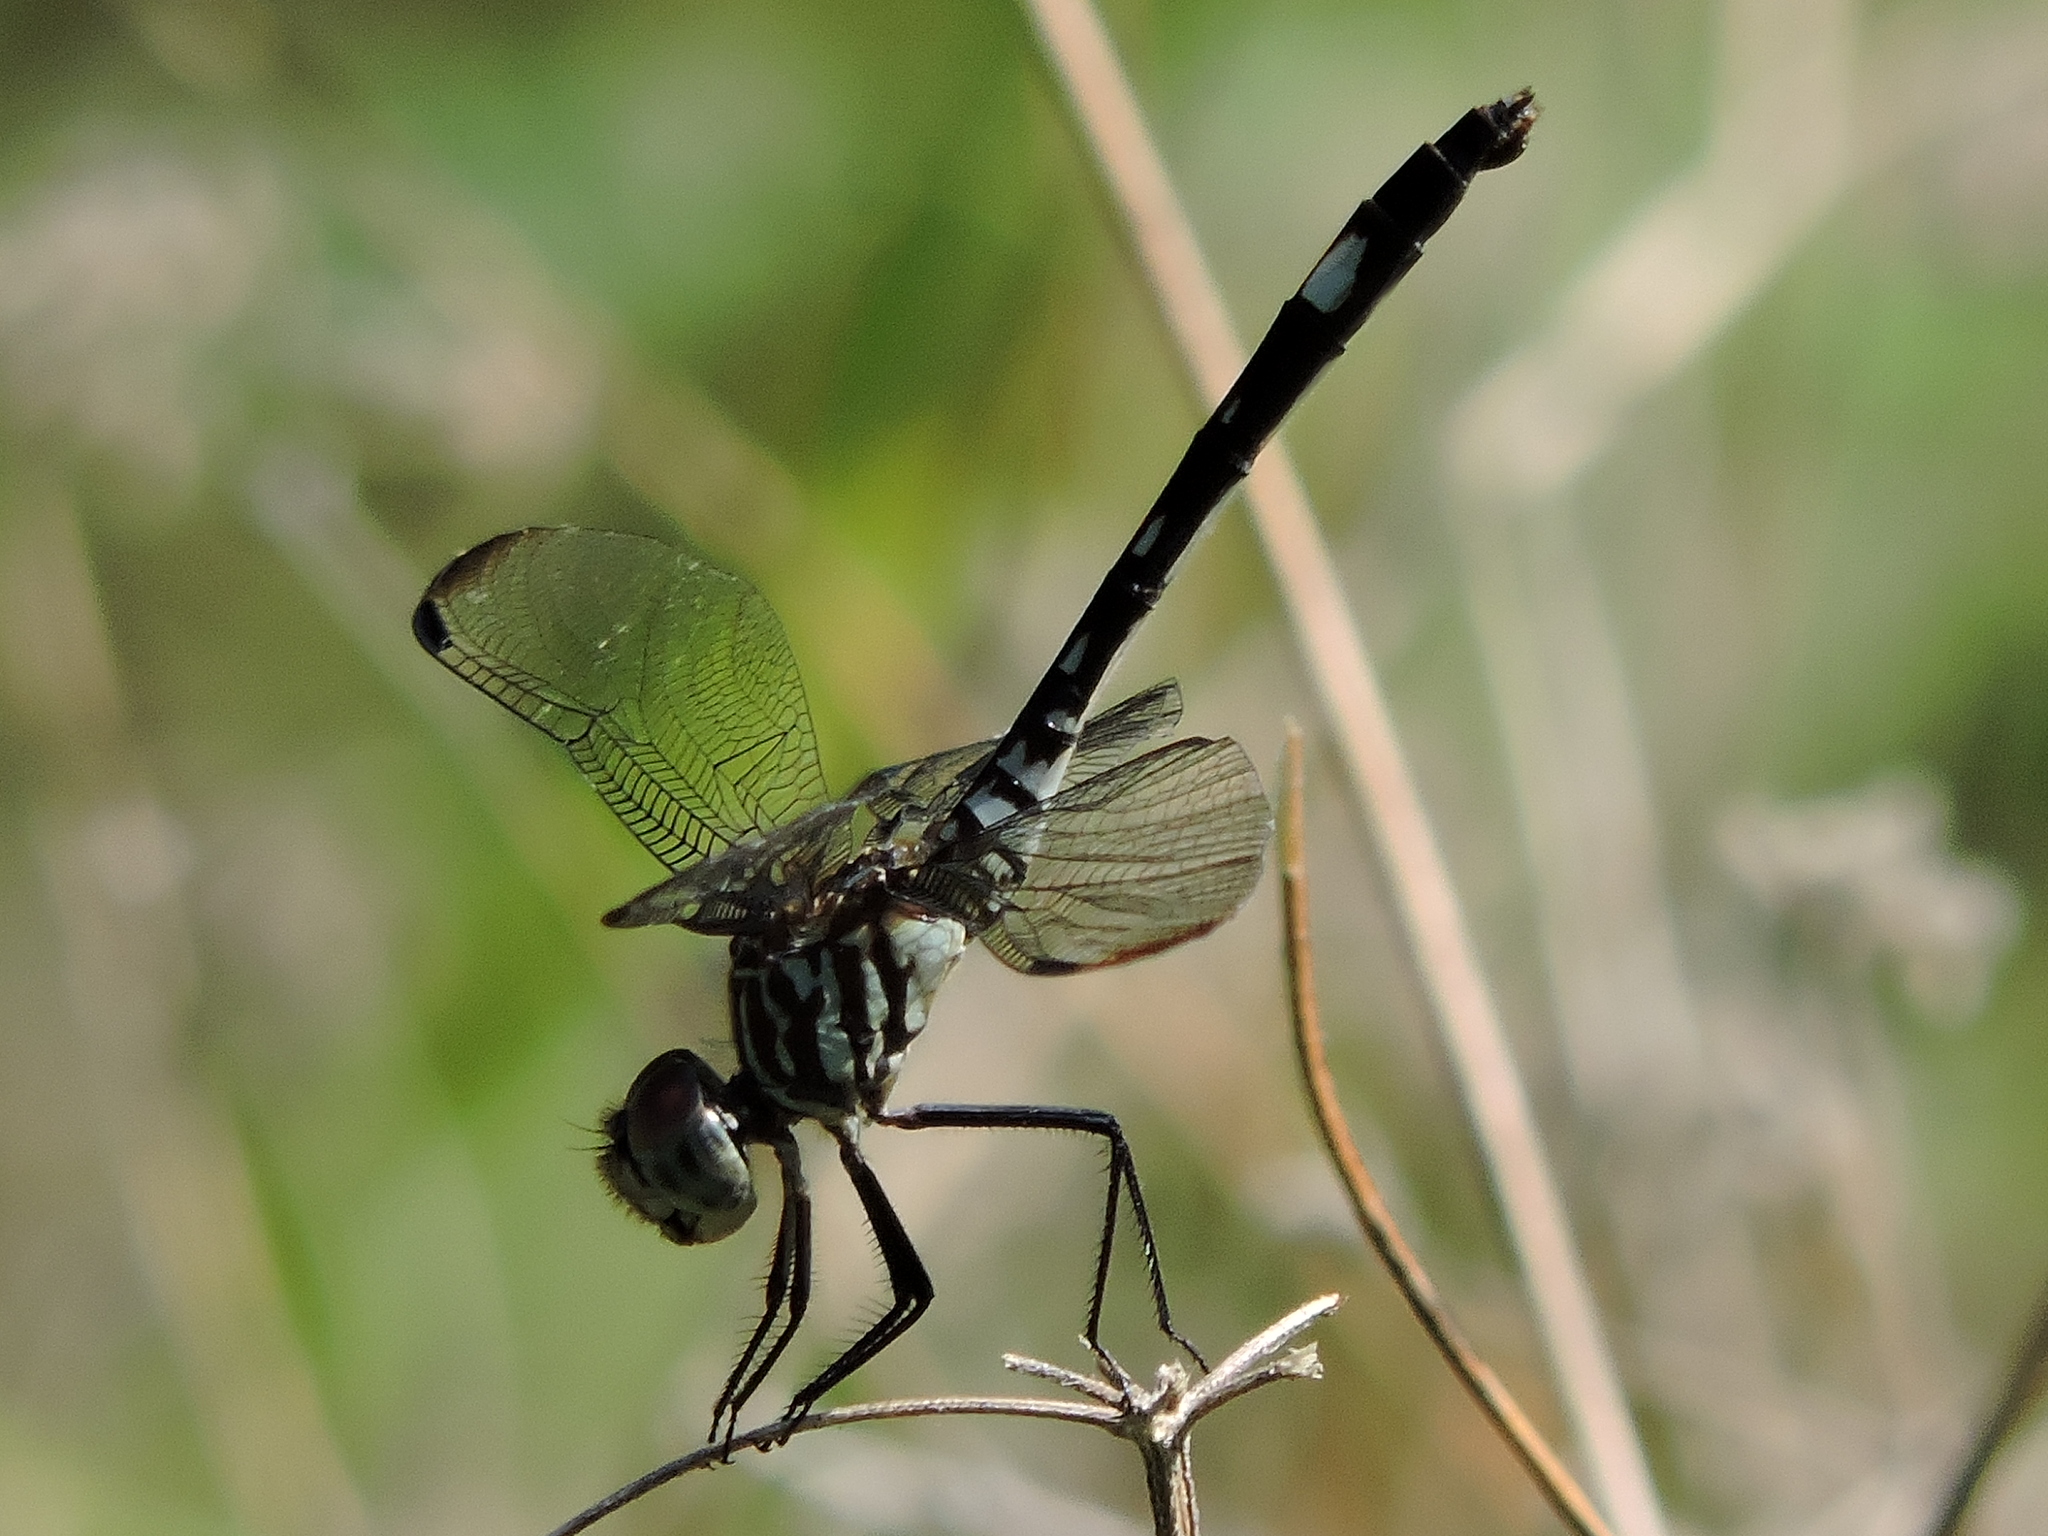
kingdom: Animalia
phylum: Arthropoda
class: Insecta
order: Odonata
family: Libellulidae
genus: Dythemis
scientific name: Dythemis velox
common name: Swift setwing
